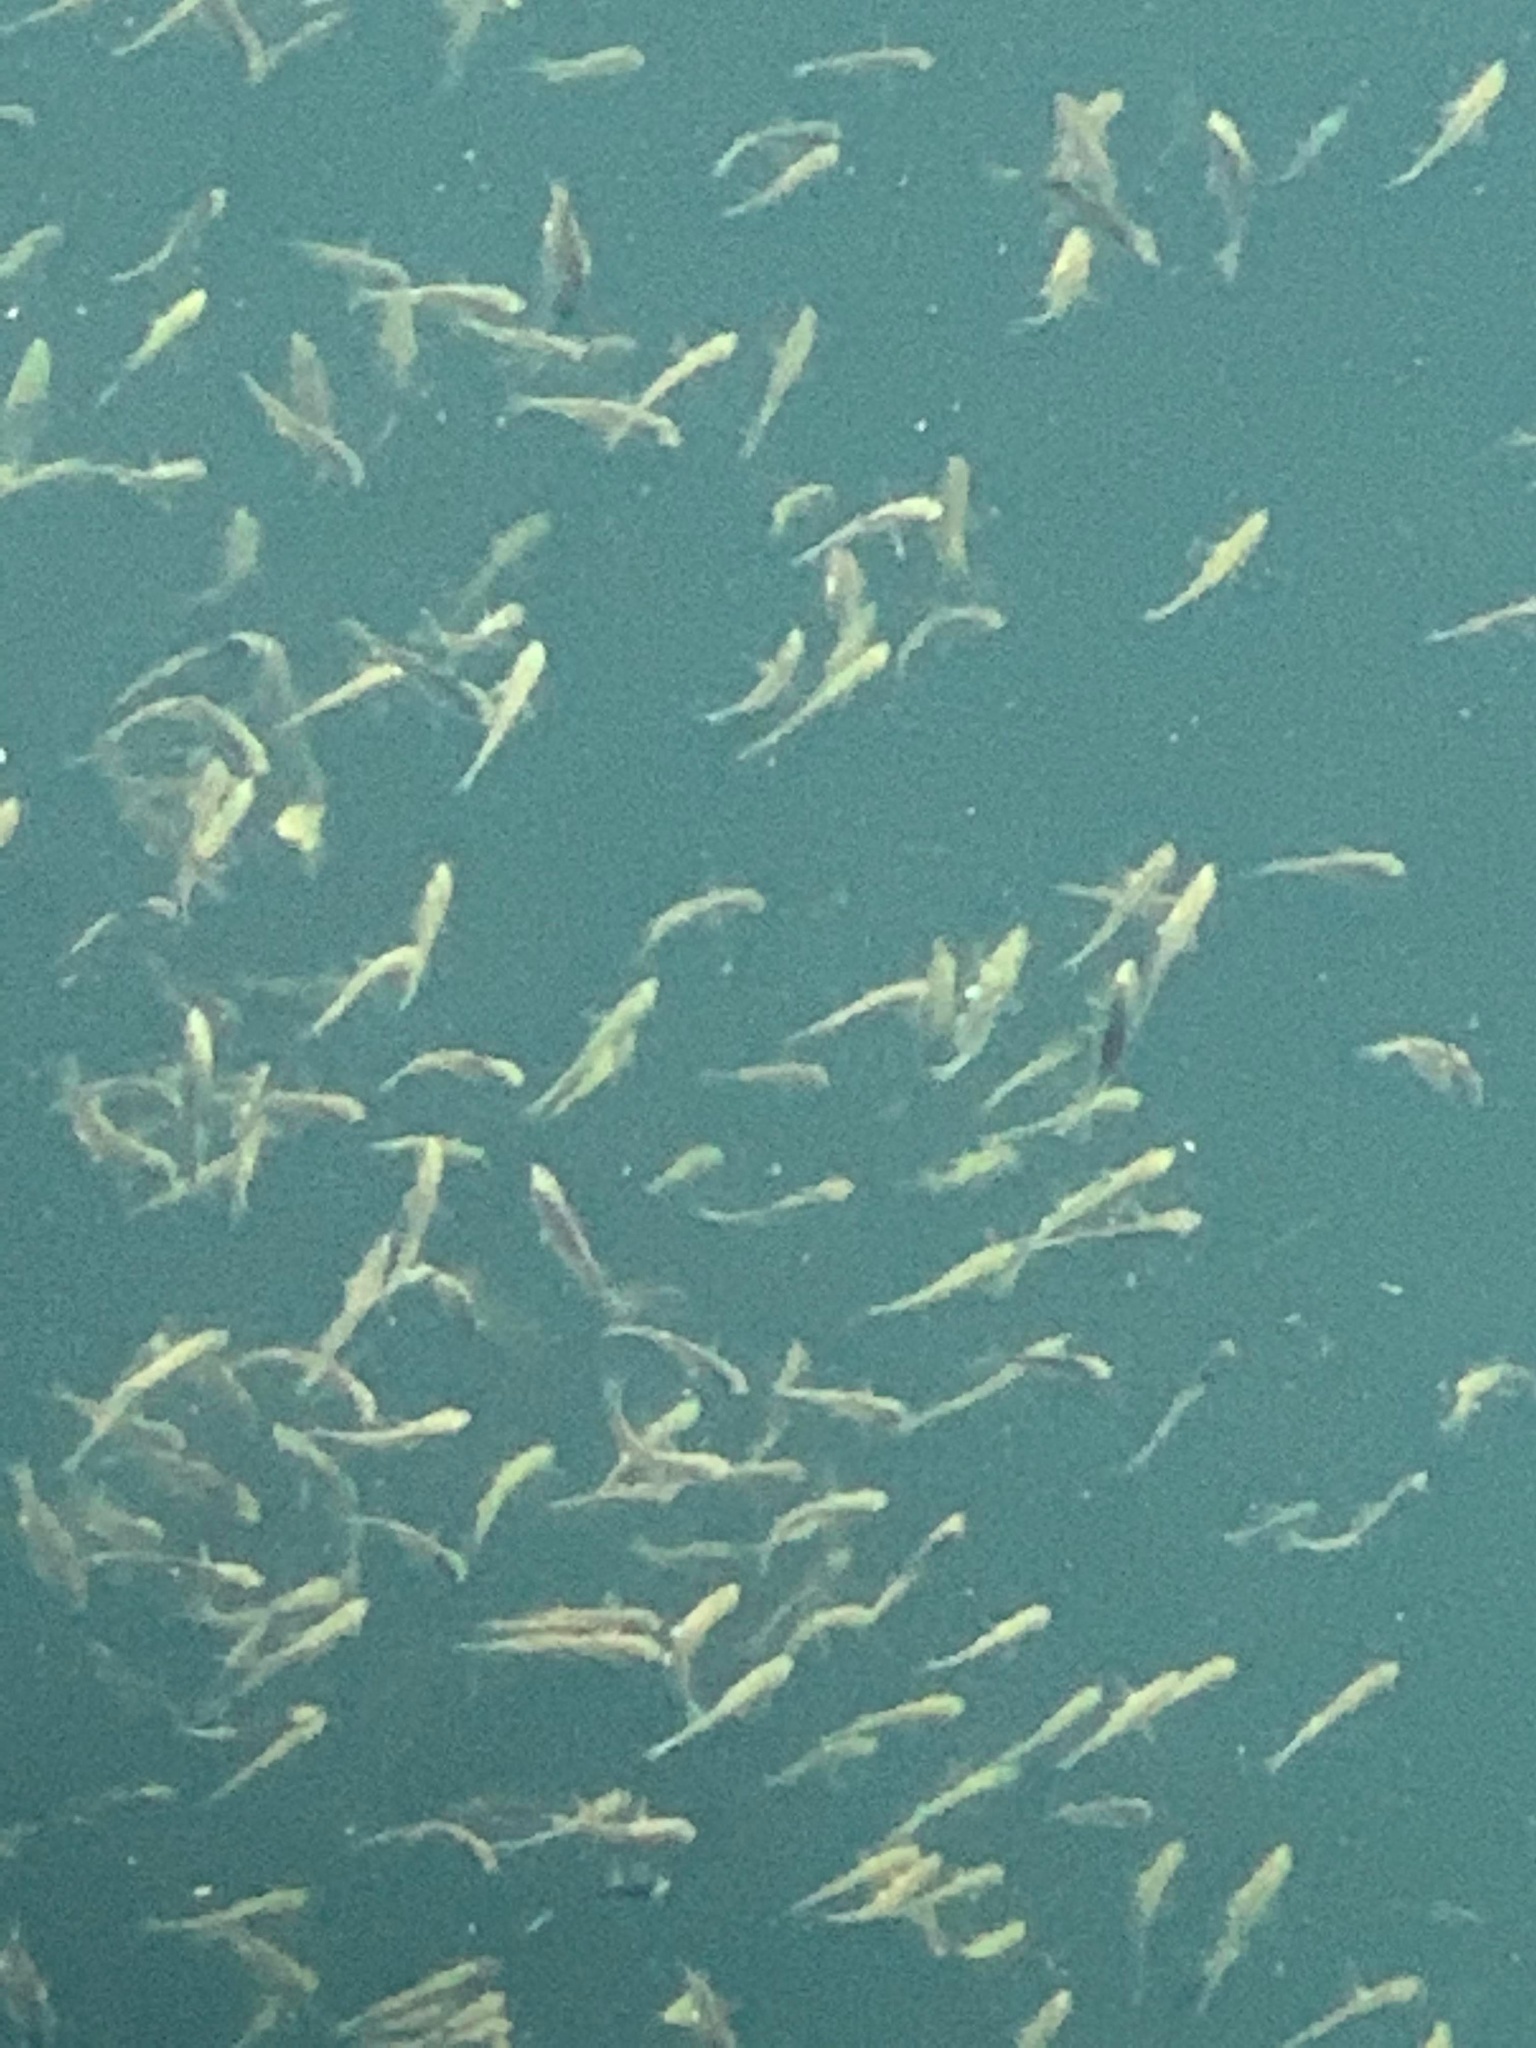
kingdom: Animalia
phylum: Chordata
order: Clupeiformes
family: Clupeidae
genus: Clupea
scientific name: Clupea pallasii
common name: Pacific herring
